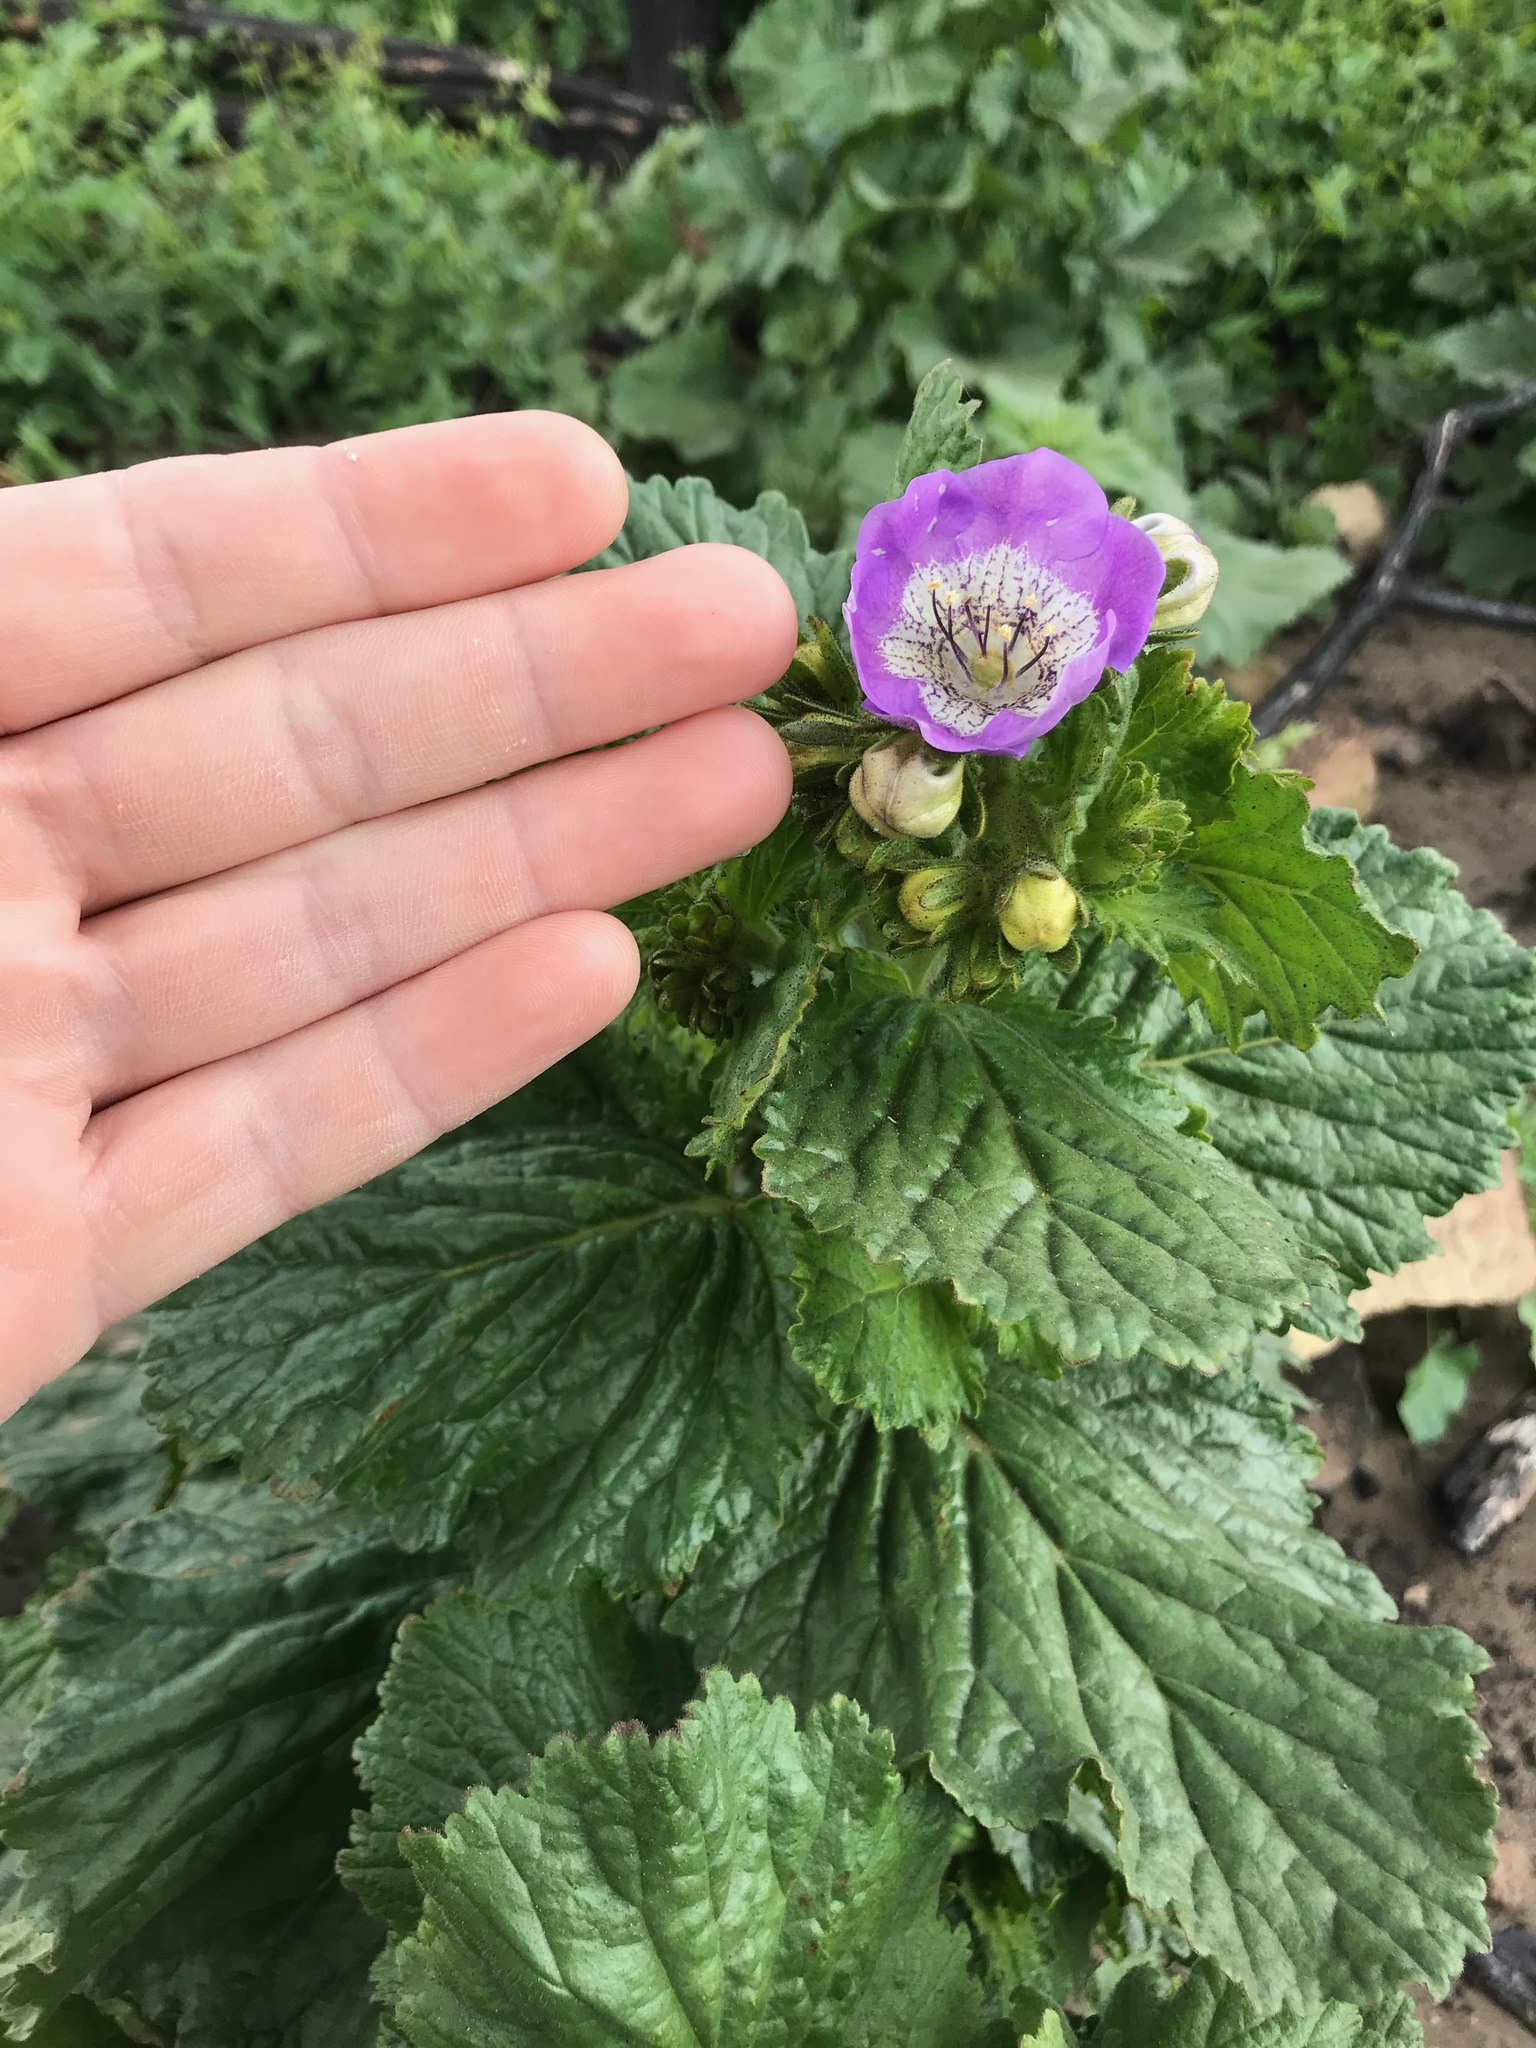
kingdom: Plantae
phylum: Tracheophyta
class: Magnoliopsida
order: Boraginales
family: Hydrophyllaceae
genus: Phacelia
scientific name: Phacelia grandiflora
